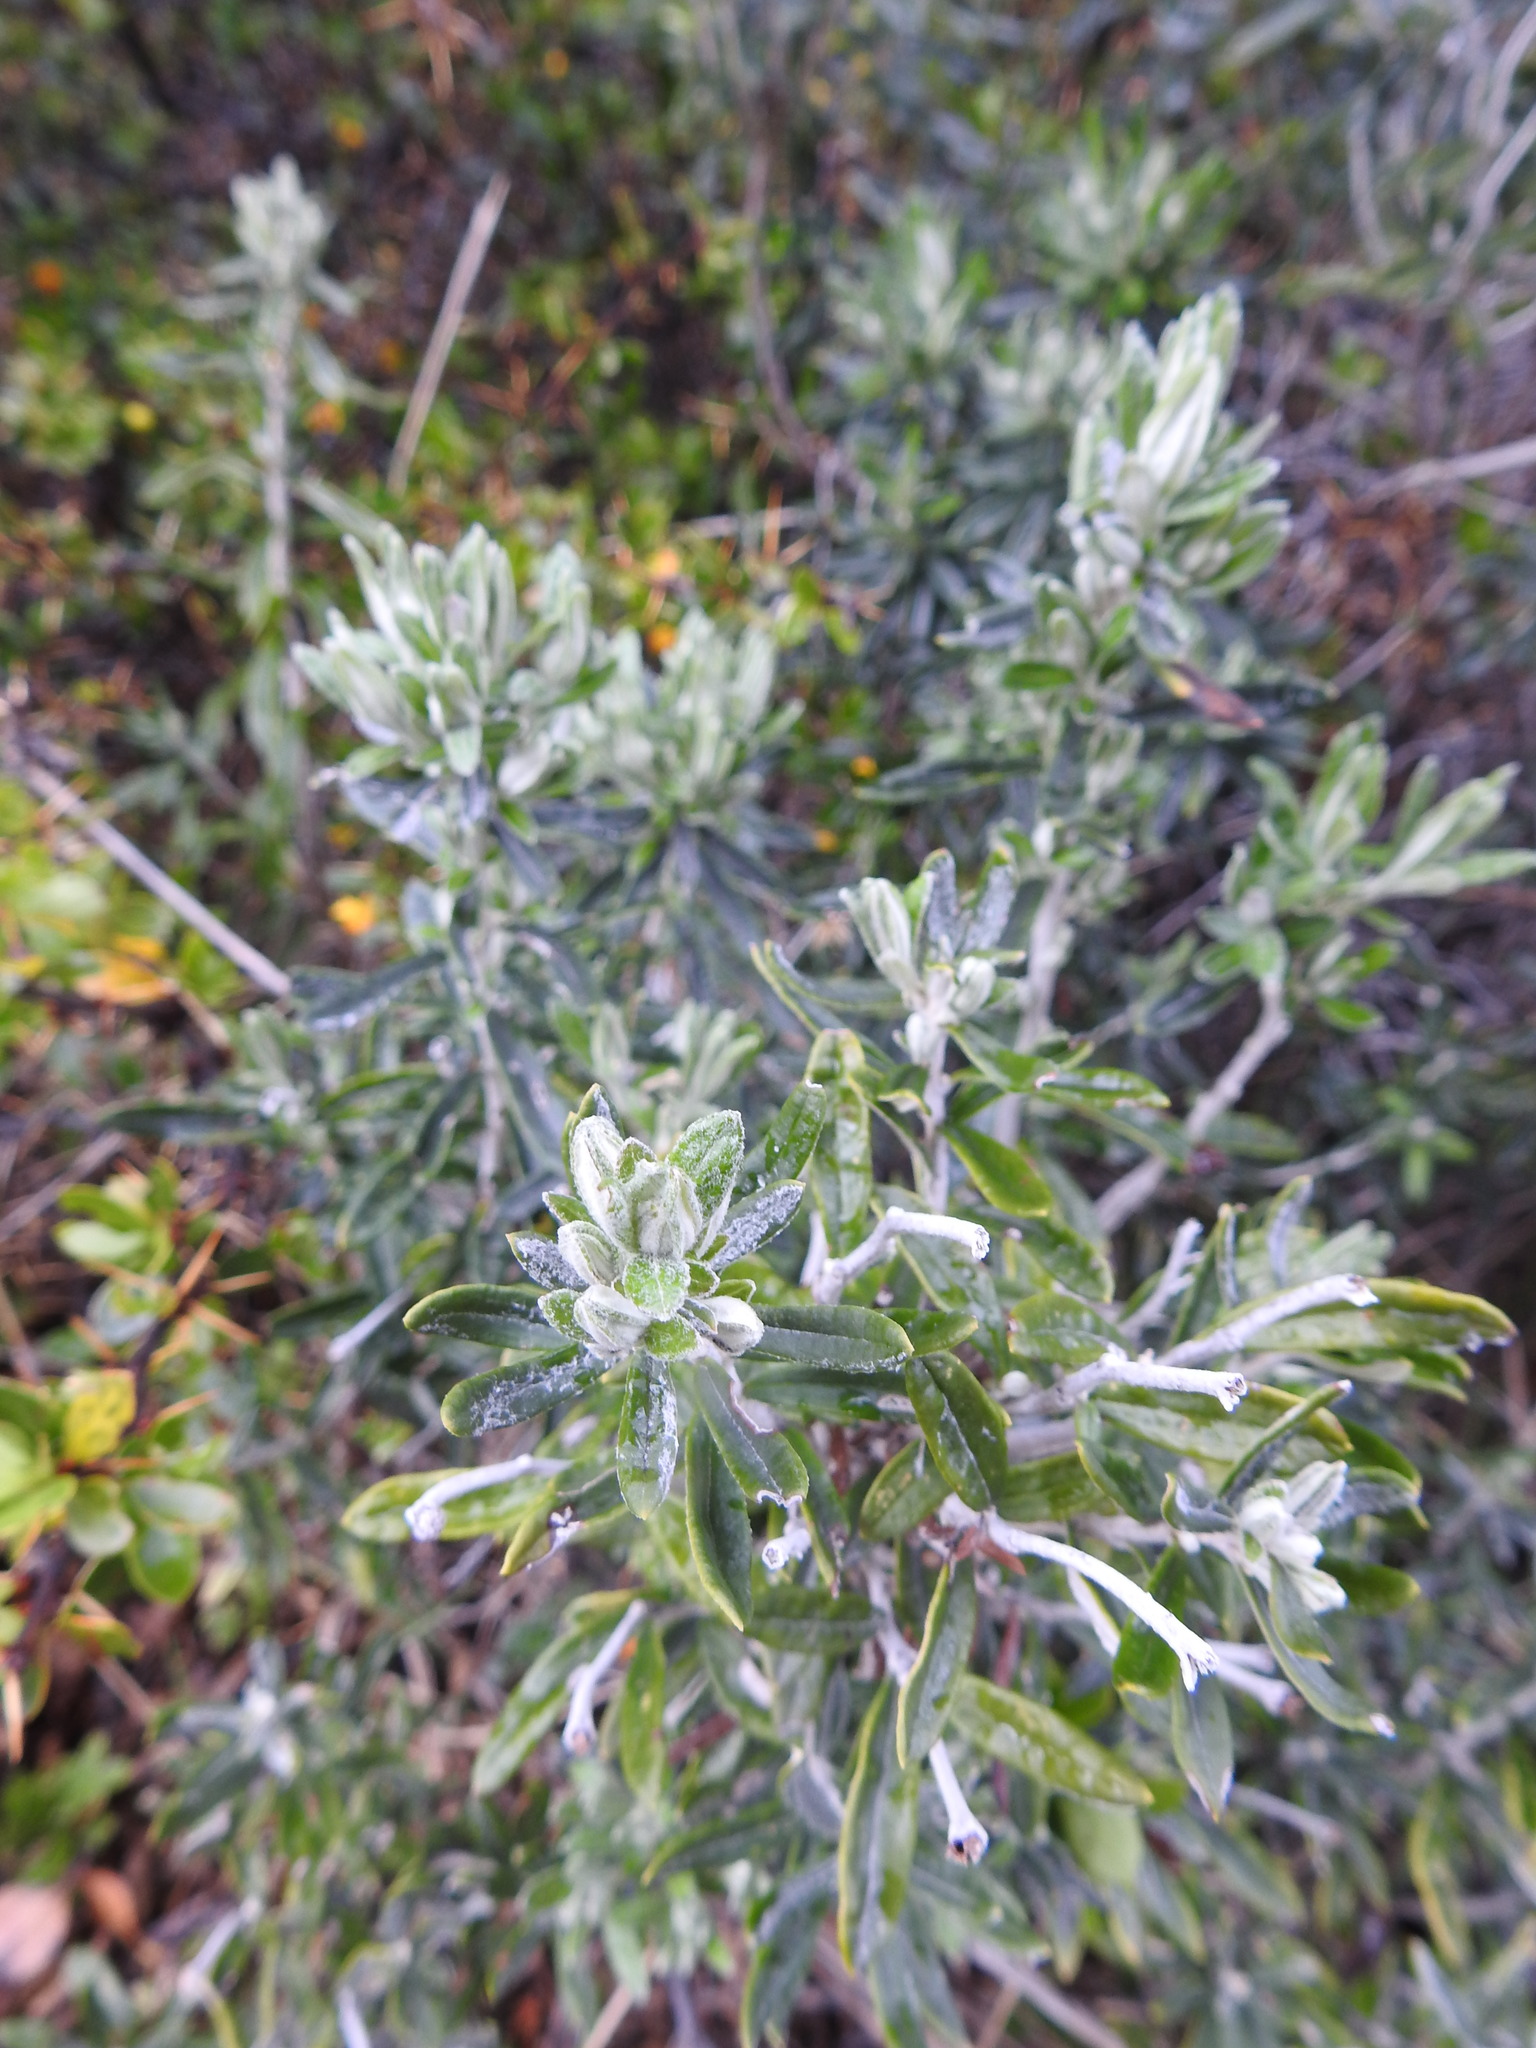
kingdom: Plantae
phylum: Tracheophyta
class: Magnoliopsida
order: Asterales
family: Asteraceae
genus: Chiliotrichum
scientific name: Chiliotrichum diffusum
